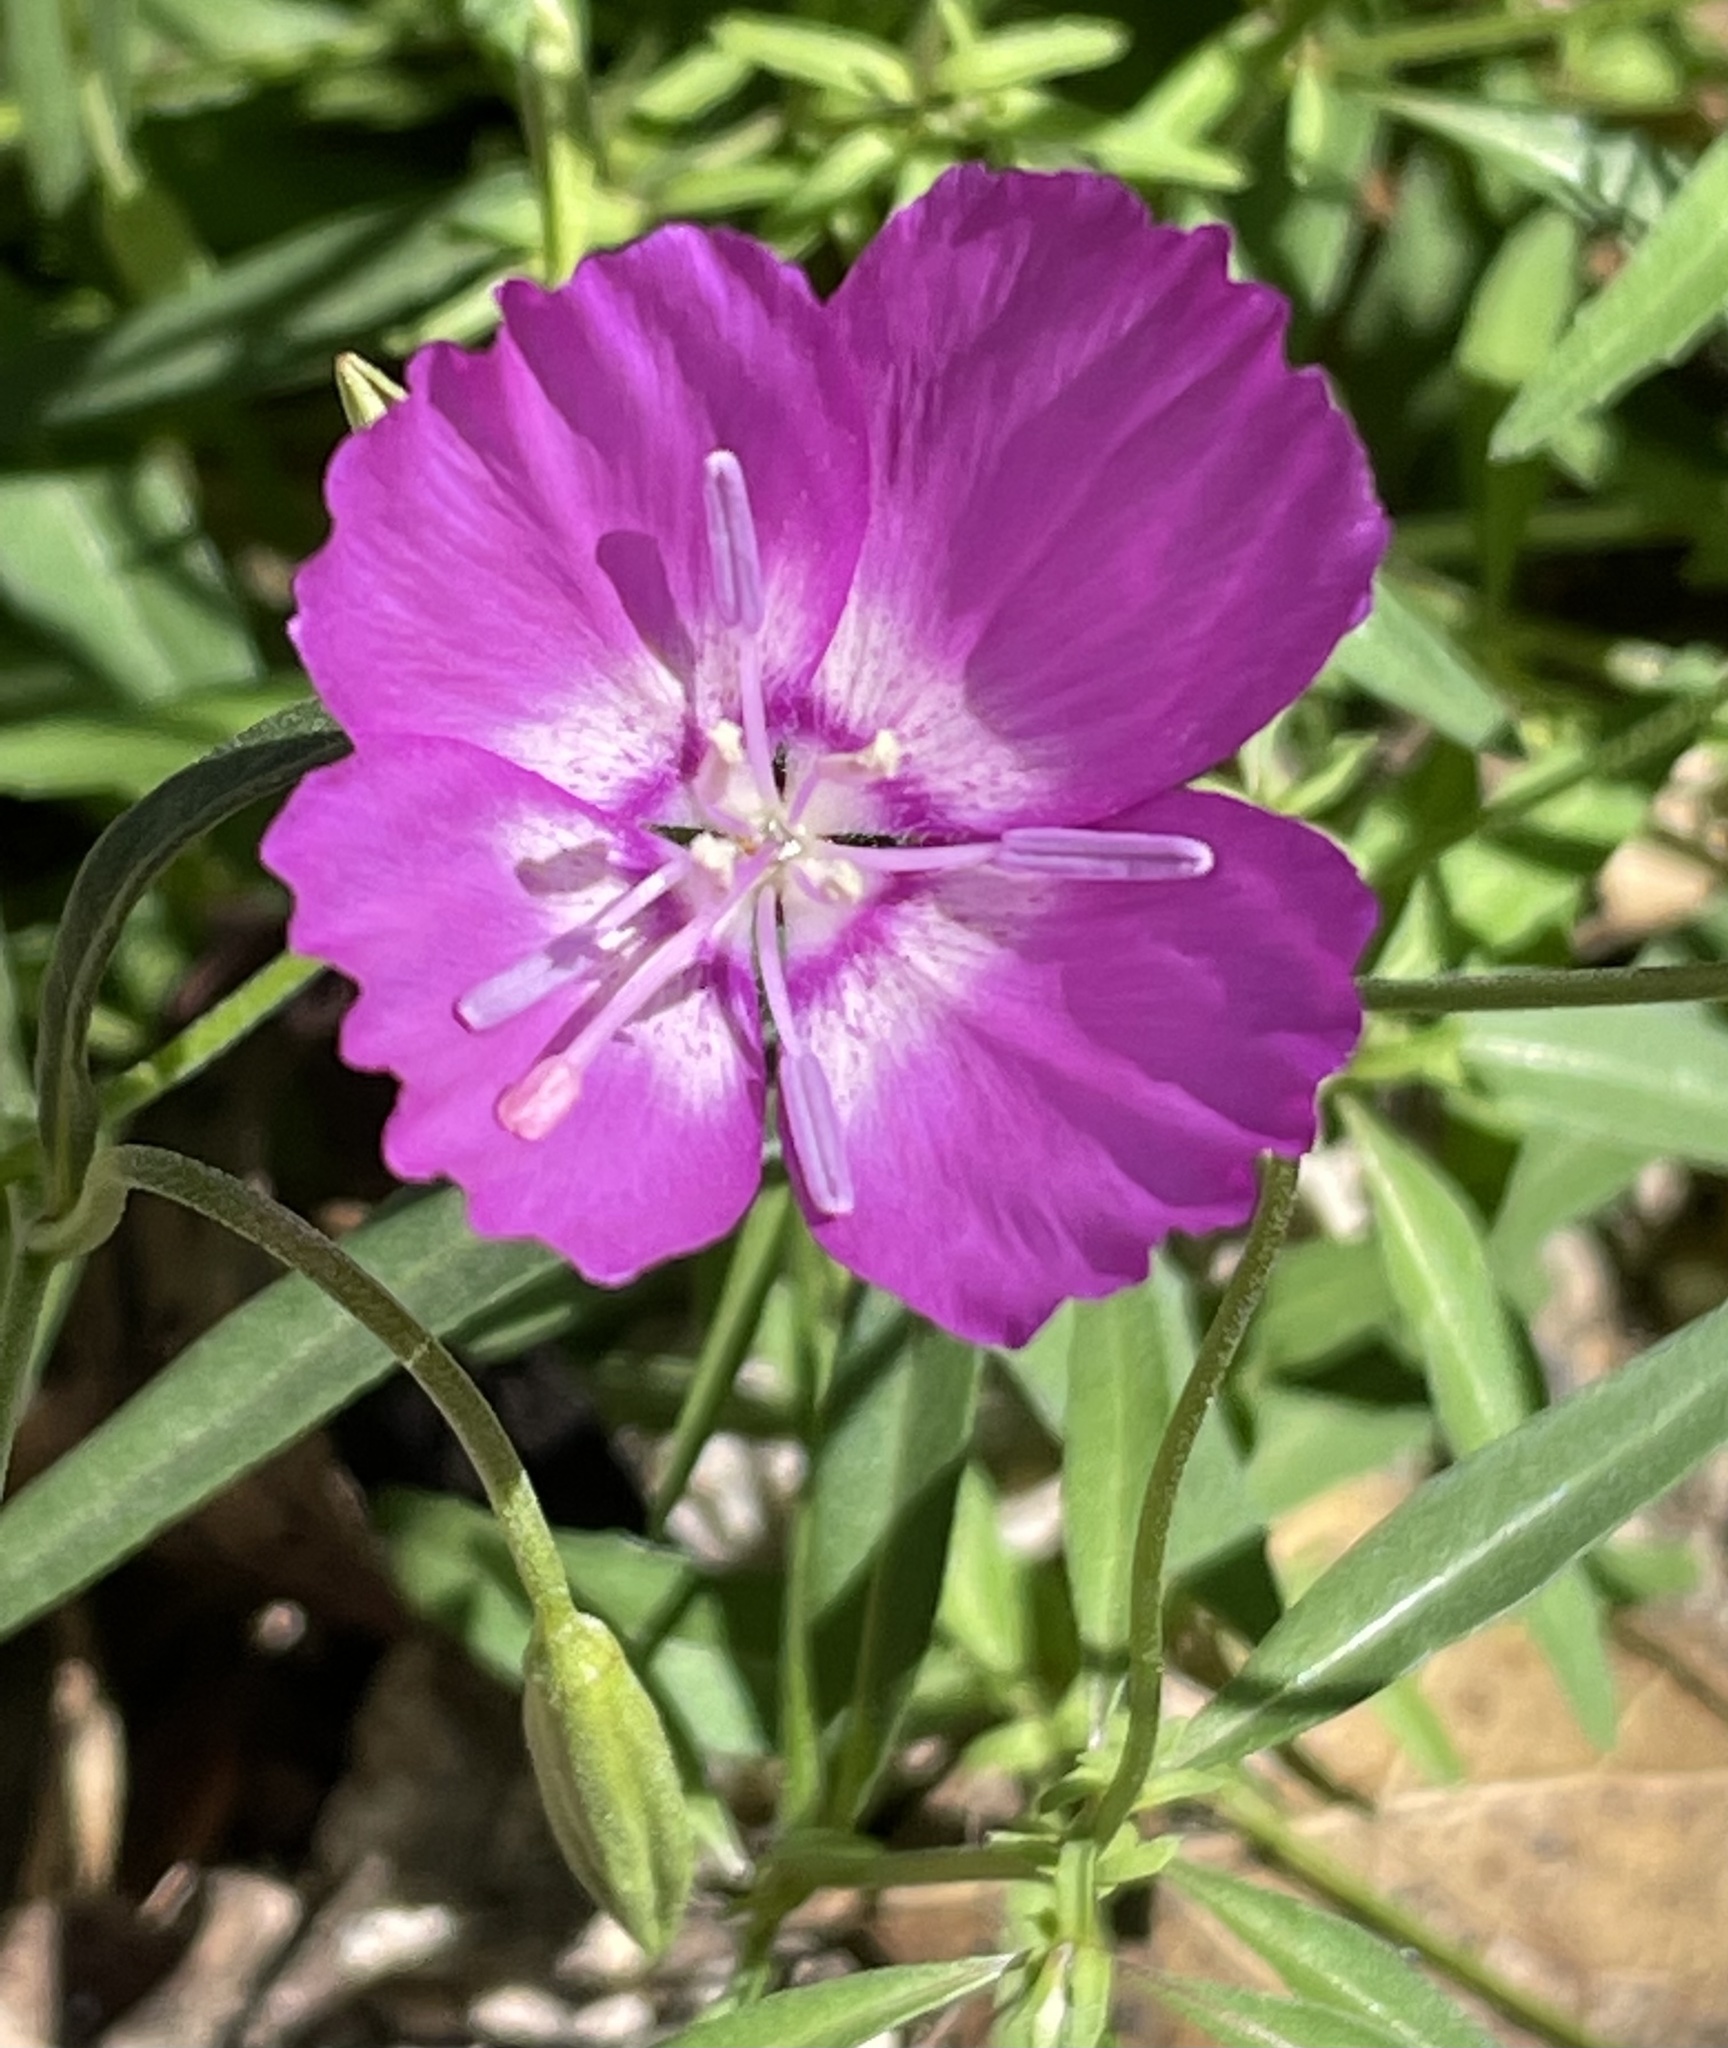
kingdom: Plantae
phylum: Tracheophyta
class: Magnoliopsida
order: Myrtales
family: Onagraceae
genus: Clarkia
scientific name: Clarkia lewisii
